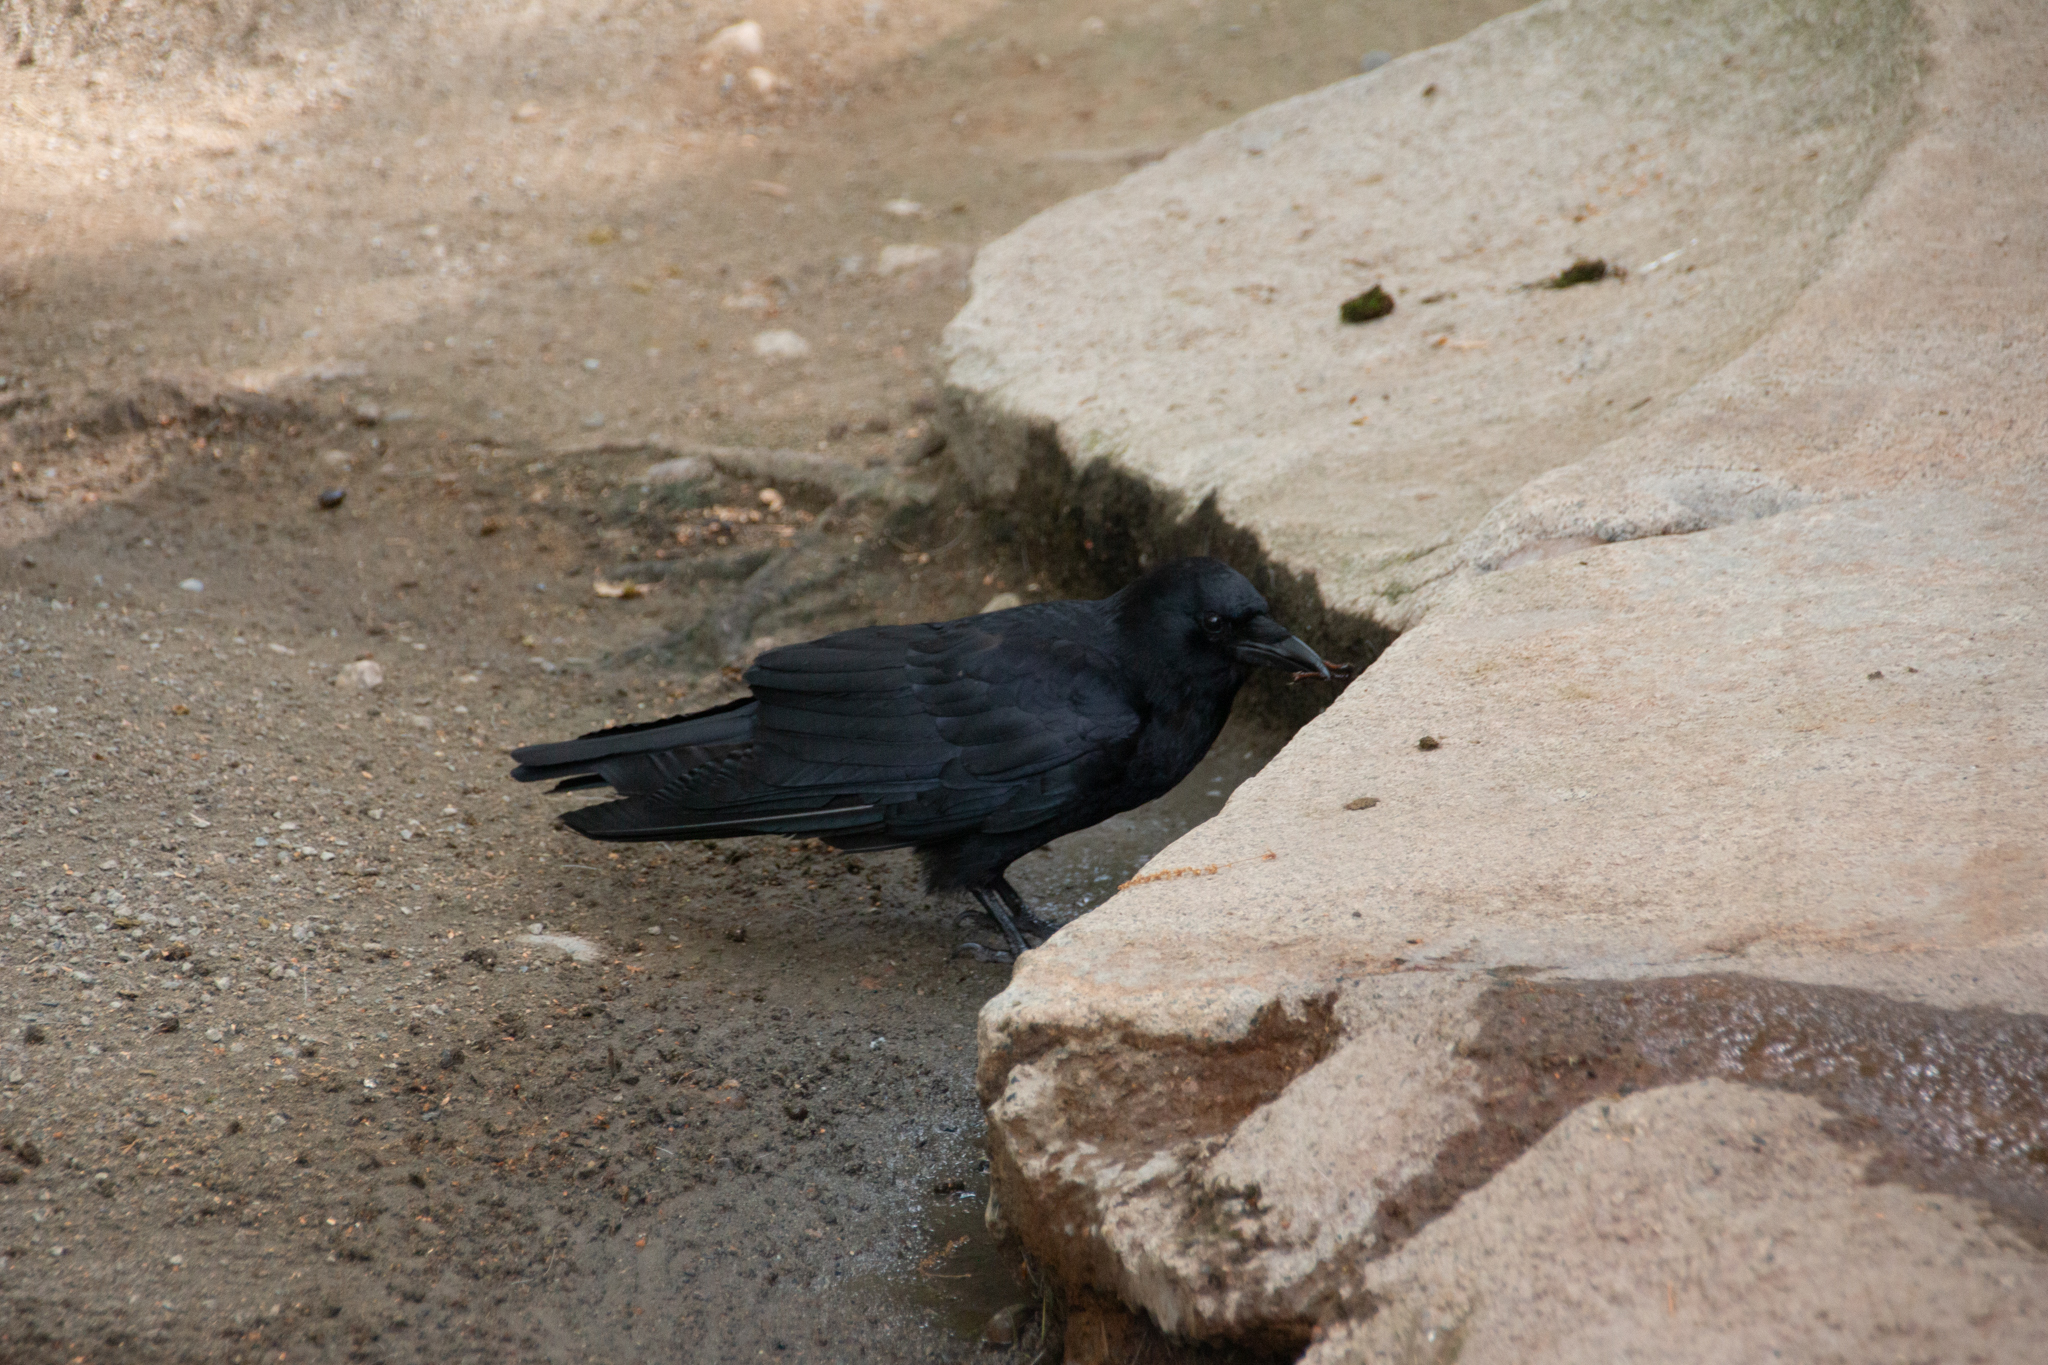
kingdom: Animalia
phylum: Chordata
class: Aves
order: Passeriformes
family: Corvidae
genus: Corvus
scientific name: Corvus brachyrhynchos
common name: American crow
